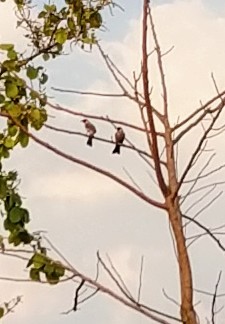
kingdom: Animalia
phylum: Chordata
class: Aves
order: Passeriformes
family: Pycnonotidae
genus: Pycnonotus
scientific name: Pycnonotus aurigaster
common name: Sooty-headed bulbul
